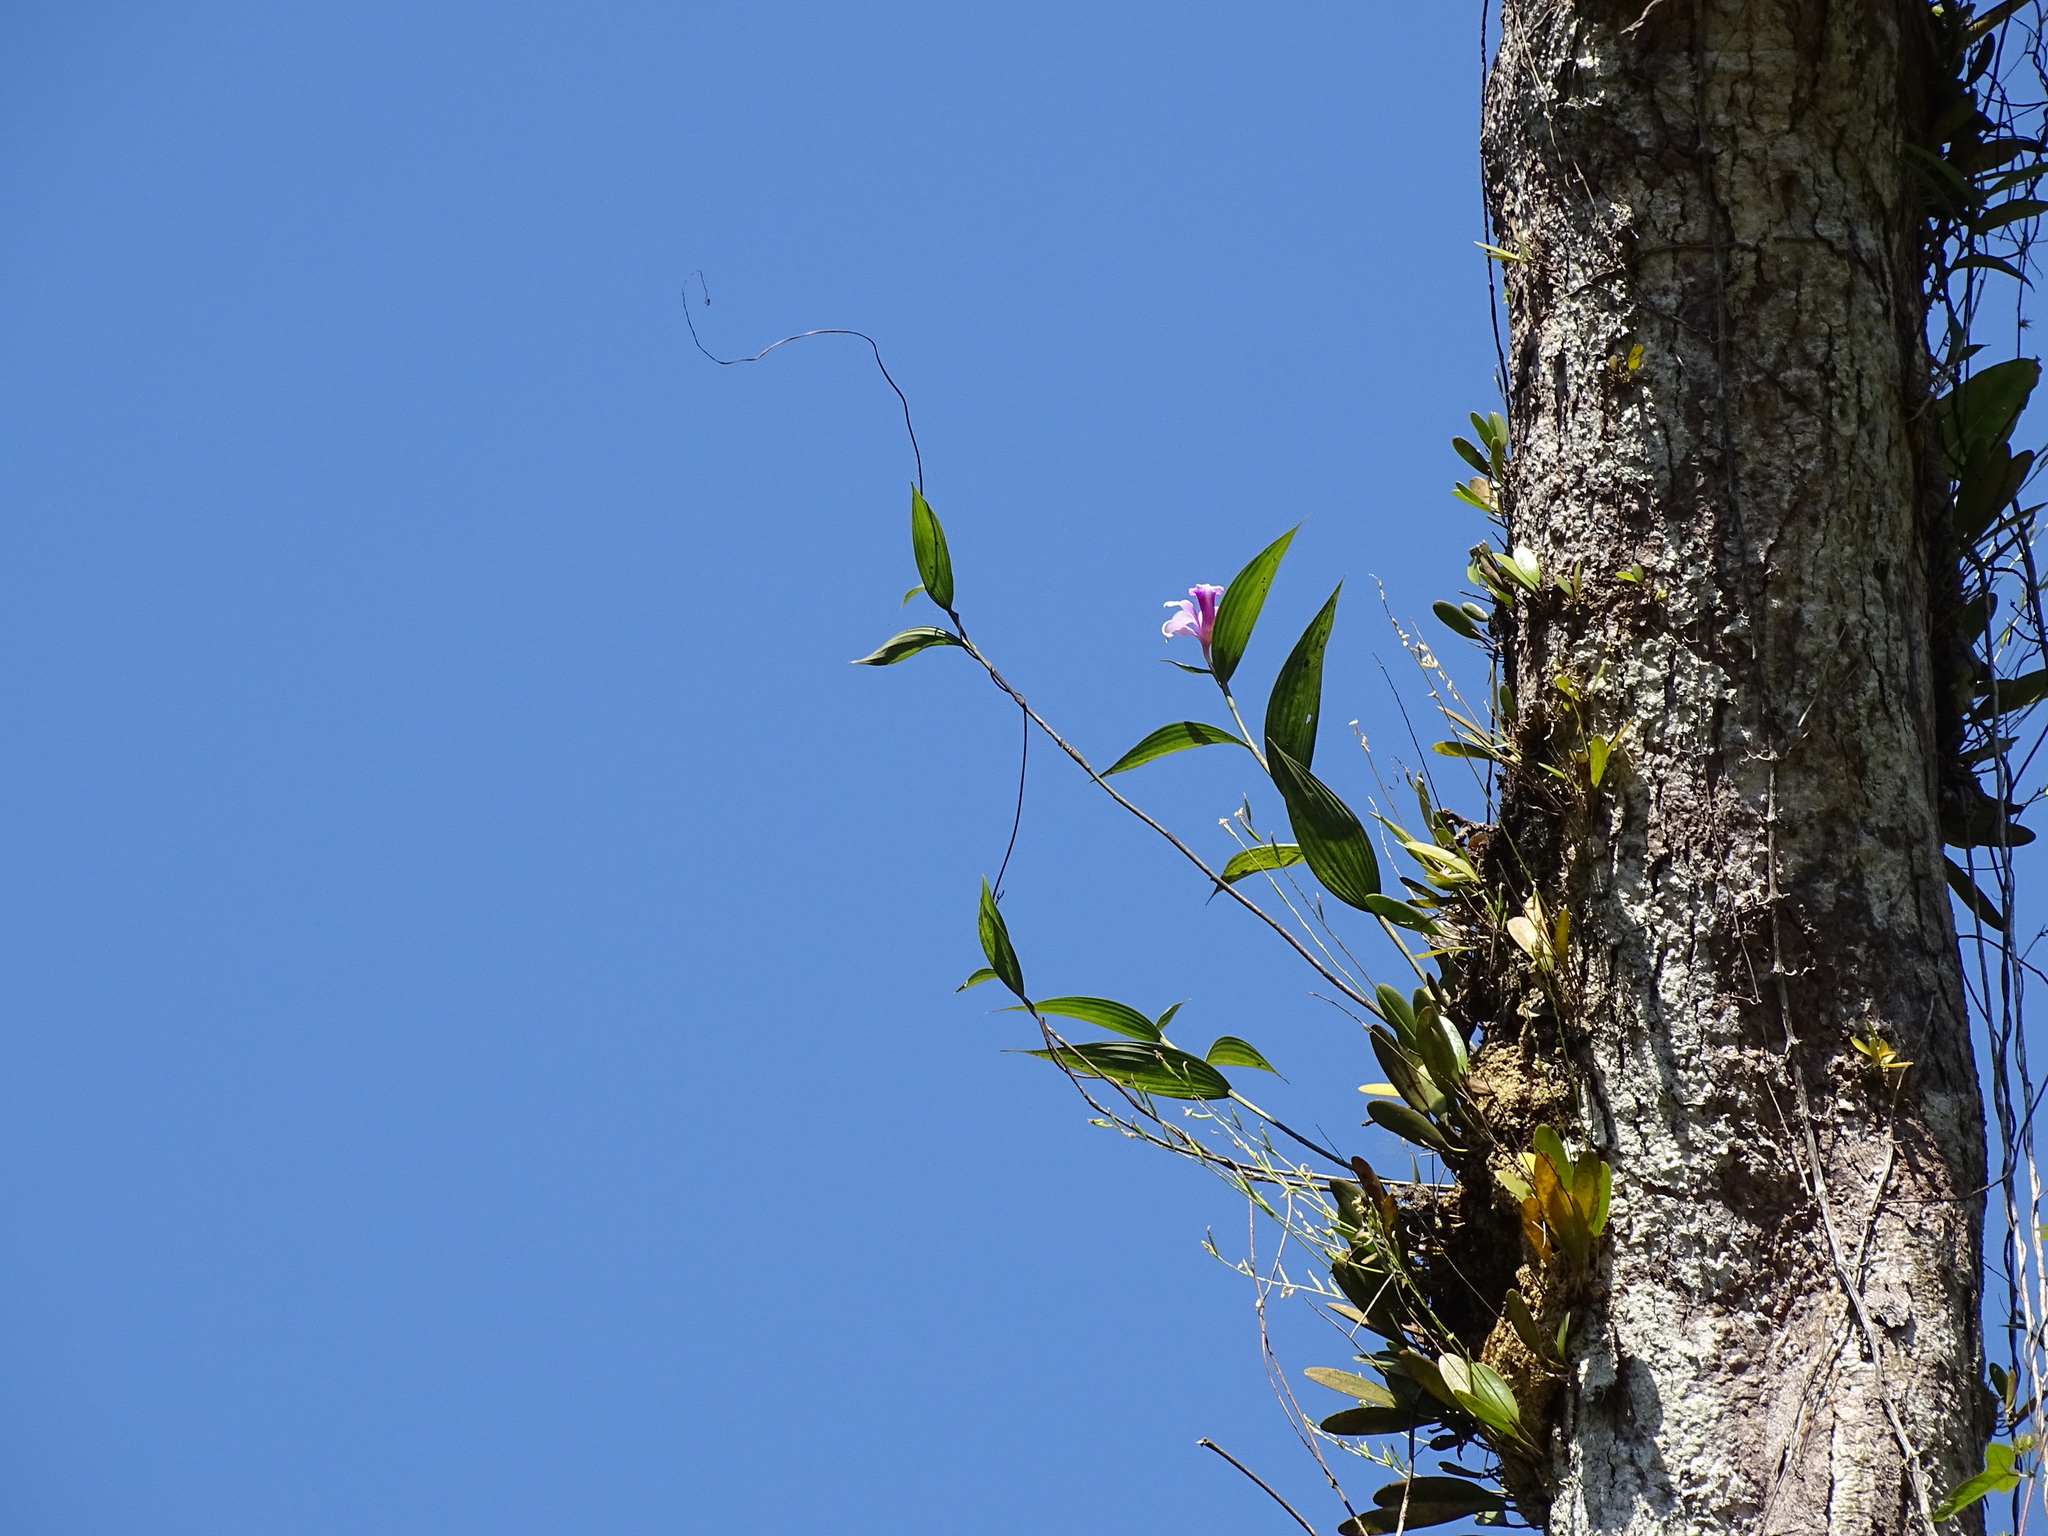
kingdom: Plantae
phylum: Tracheophyta
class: Liliopsida
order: Asparagales
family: Orchidaceae
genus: Sobralia
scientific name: Sobralia decora
